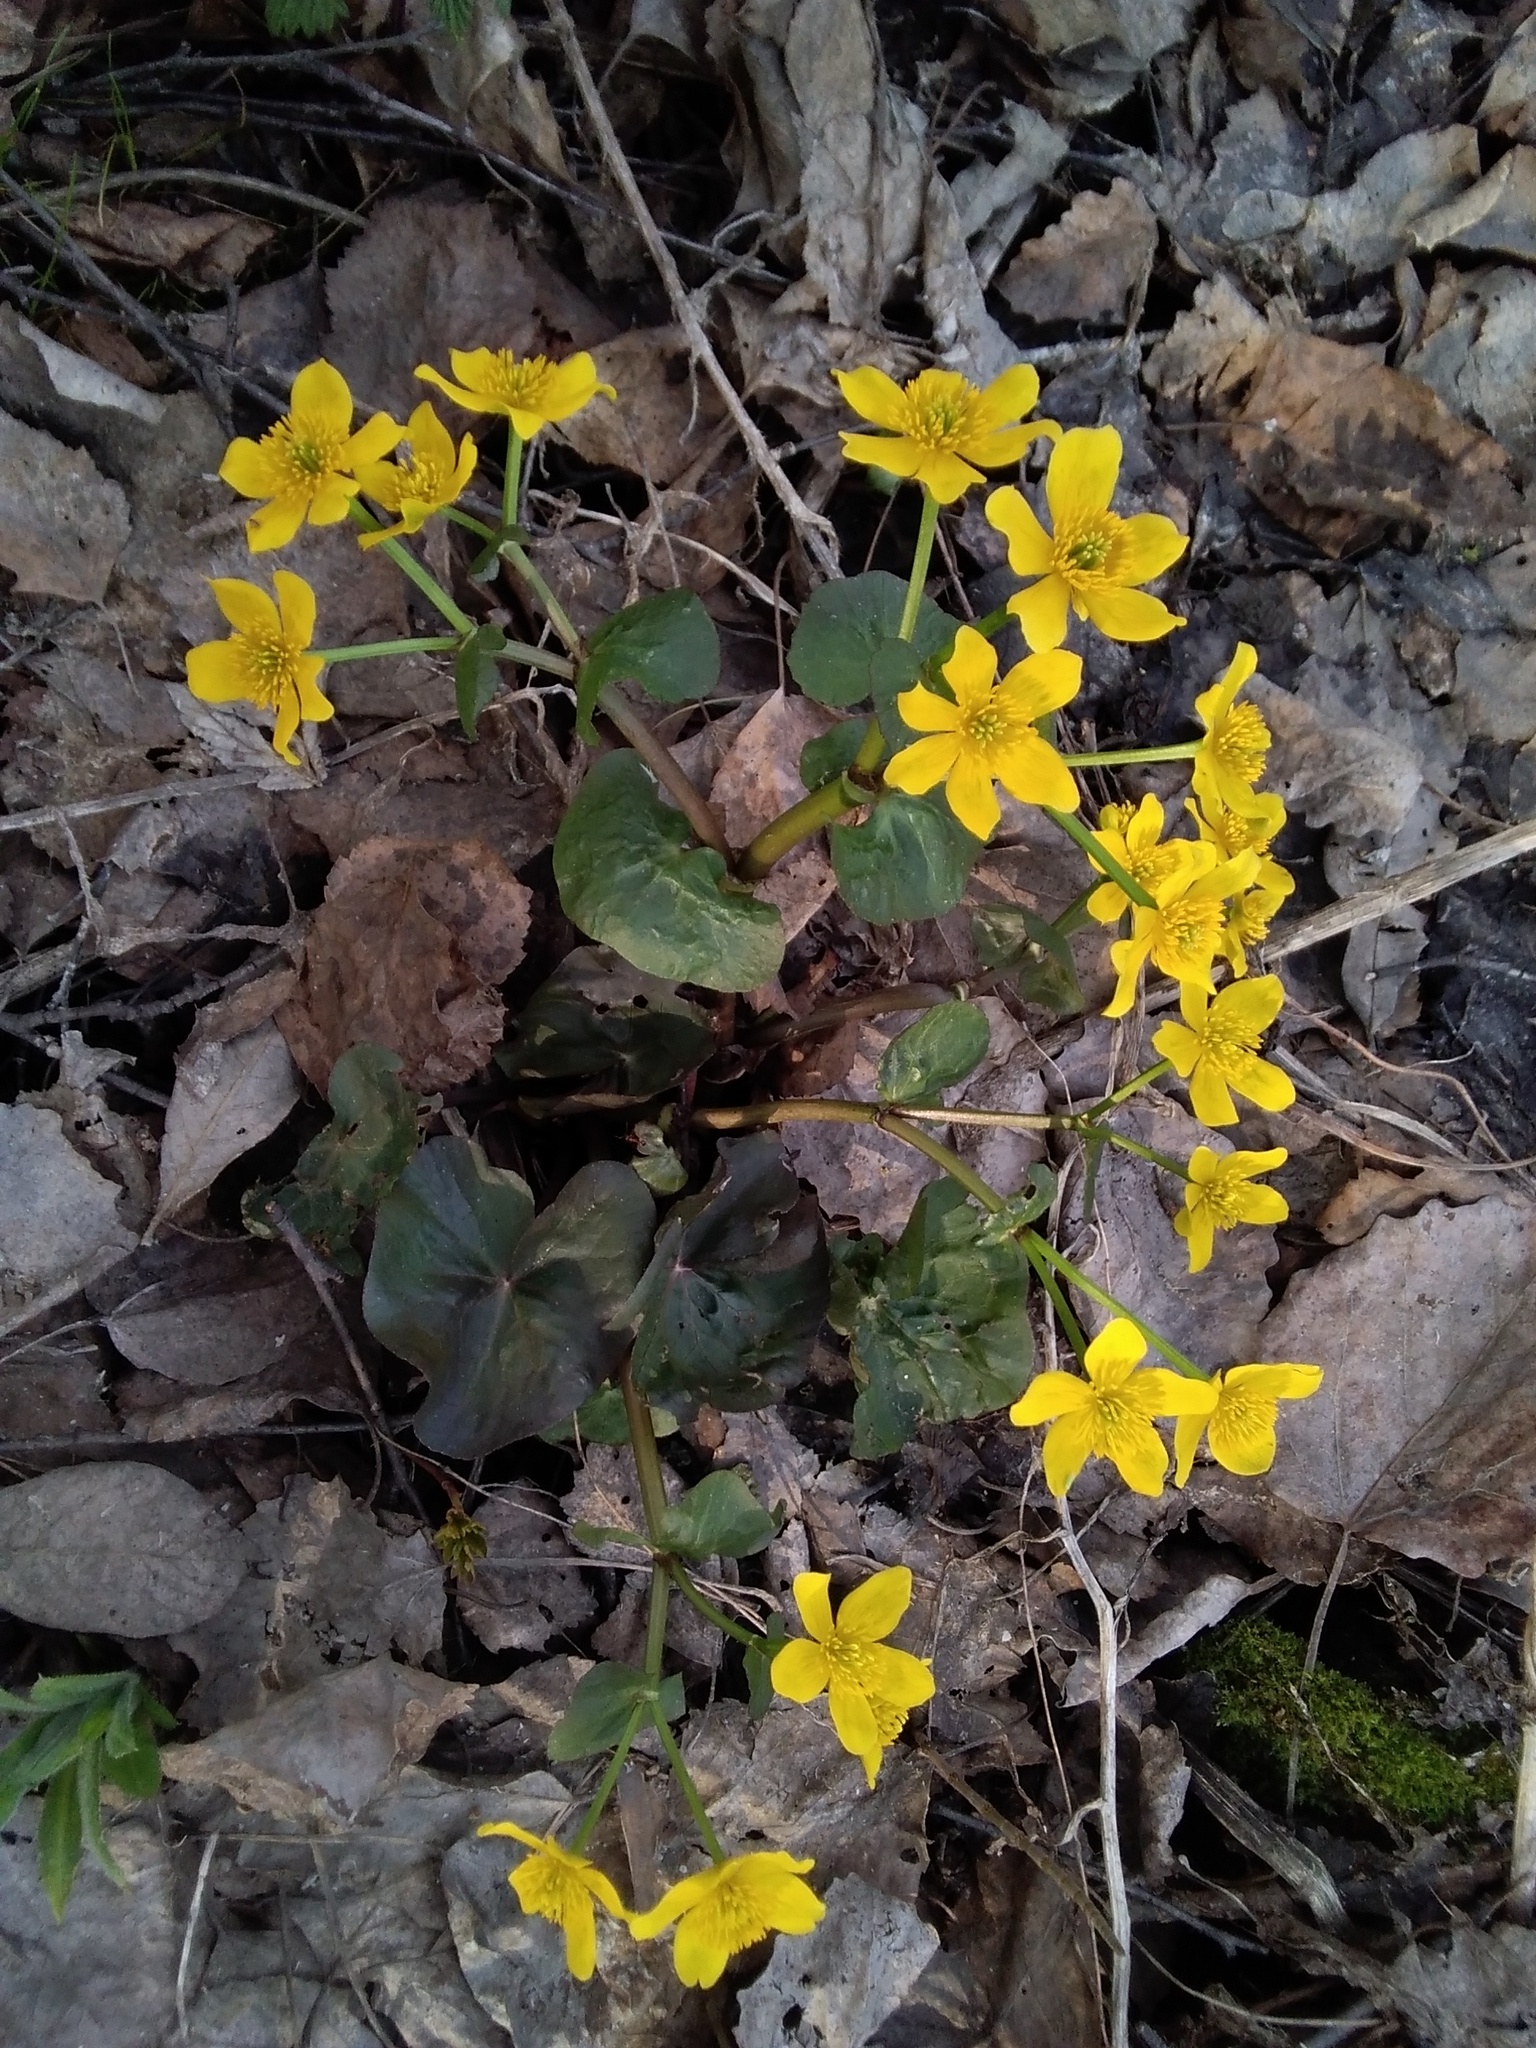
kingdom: Plantae
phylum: Tracheophyta
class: Magnoliopsida
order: Ranunculales
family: Ranunculaceae
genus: Caltha
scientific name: Caltha palustris
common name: Marsh marigold
